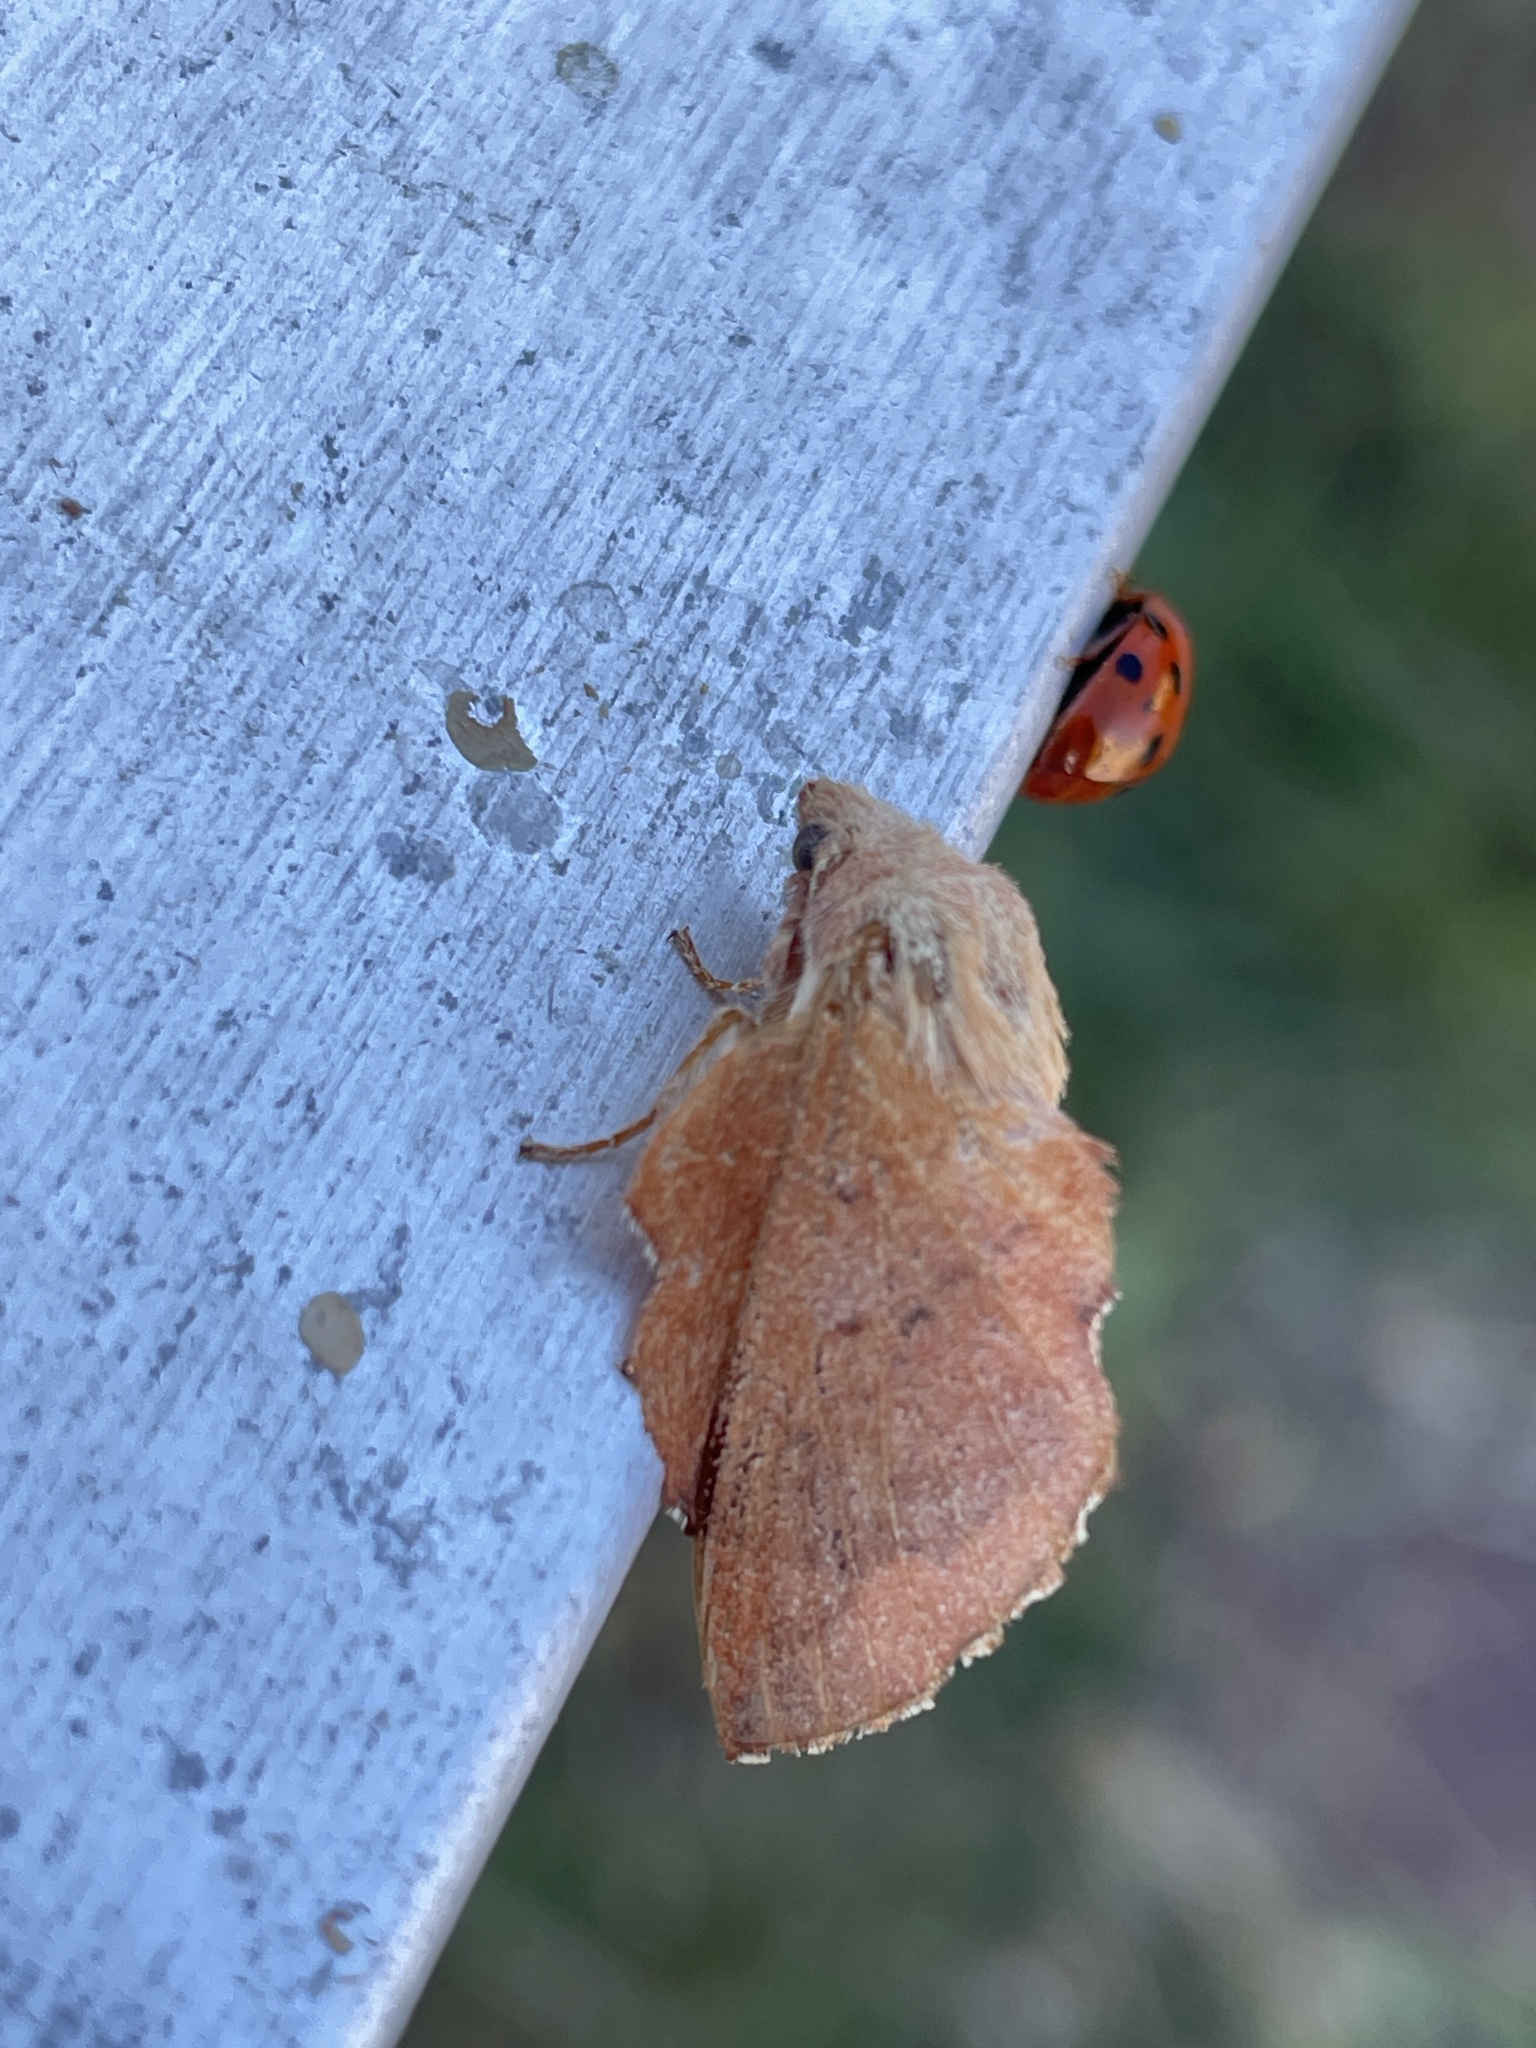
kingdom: Animalia
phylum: Arthropoda
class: Insecta
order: Lepidoptera
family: Lasiocampidae
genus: Phyllodesma
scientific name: Phyllodesma tremulifolia
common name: Aspen lappet
